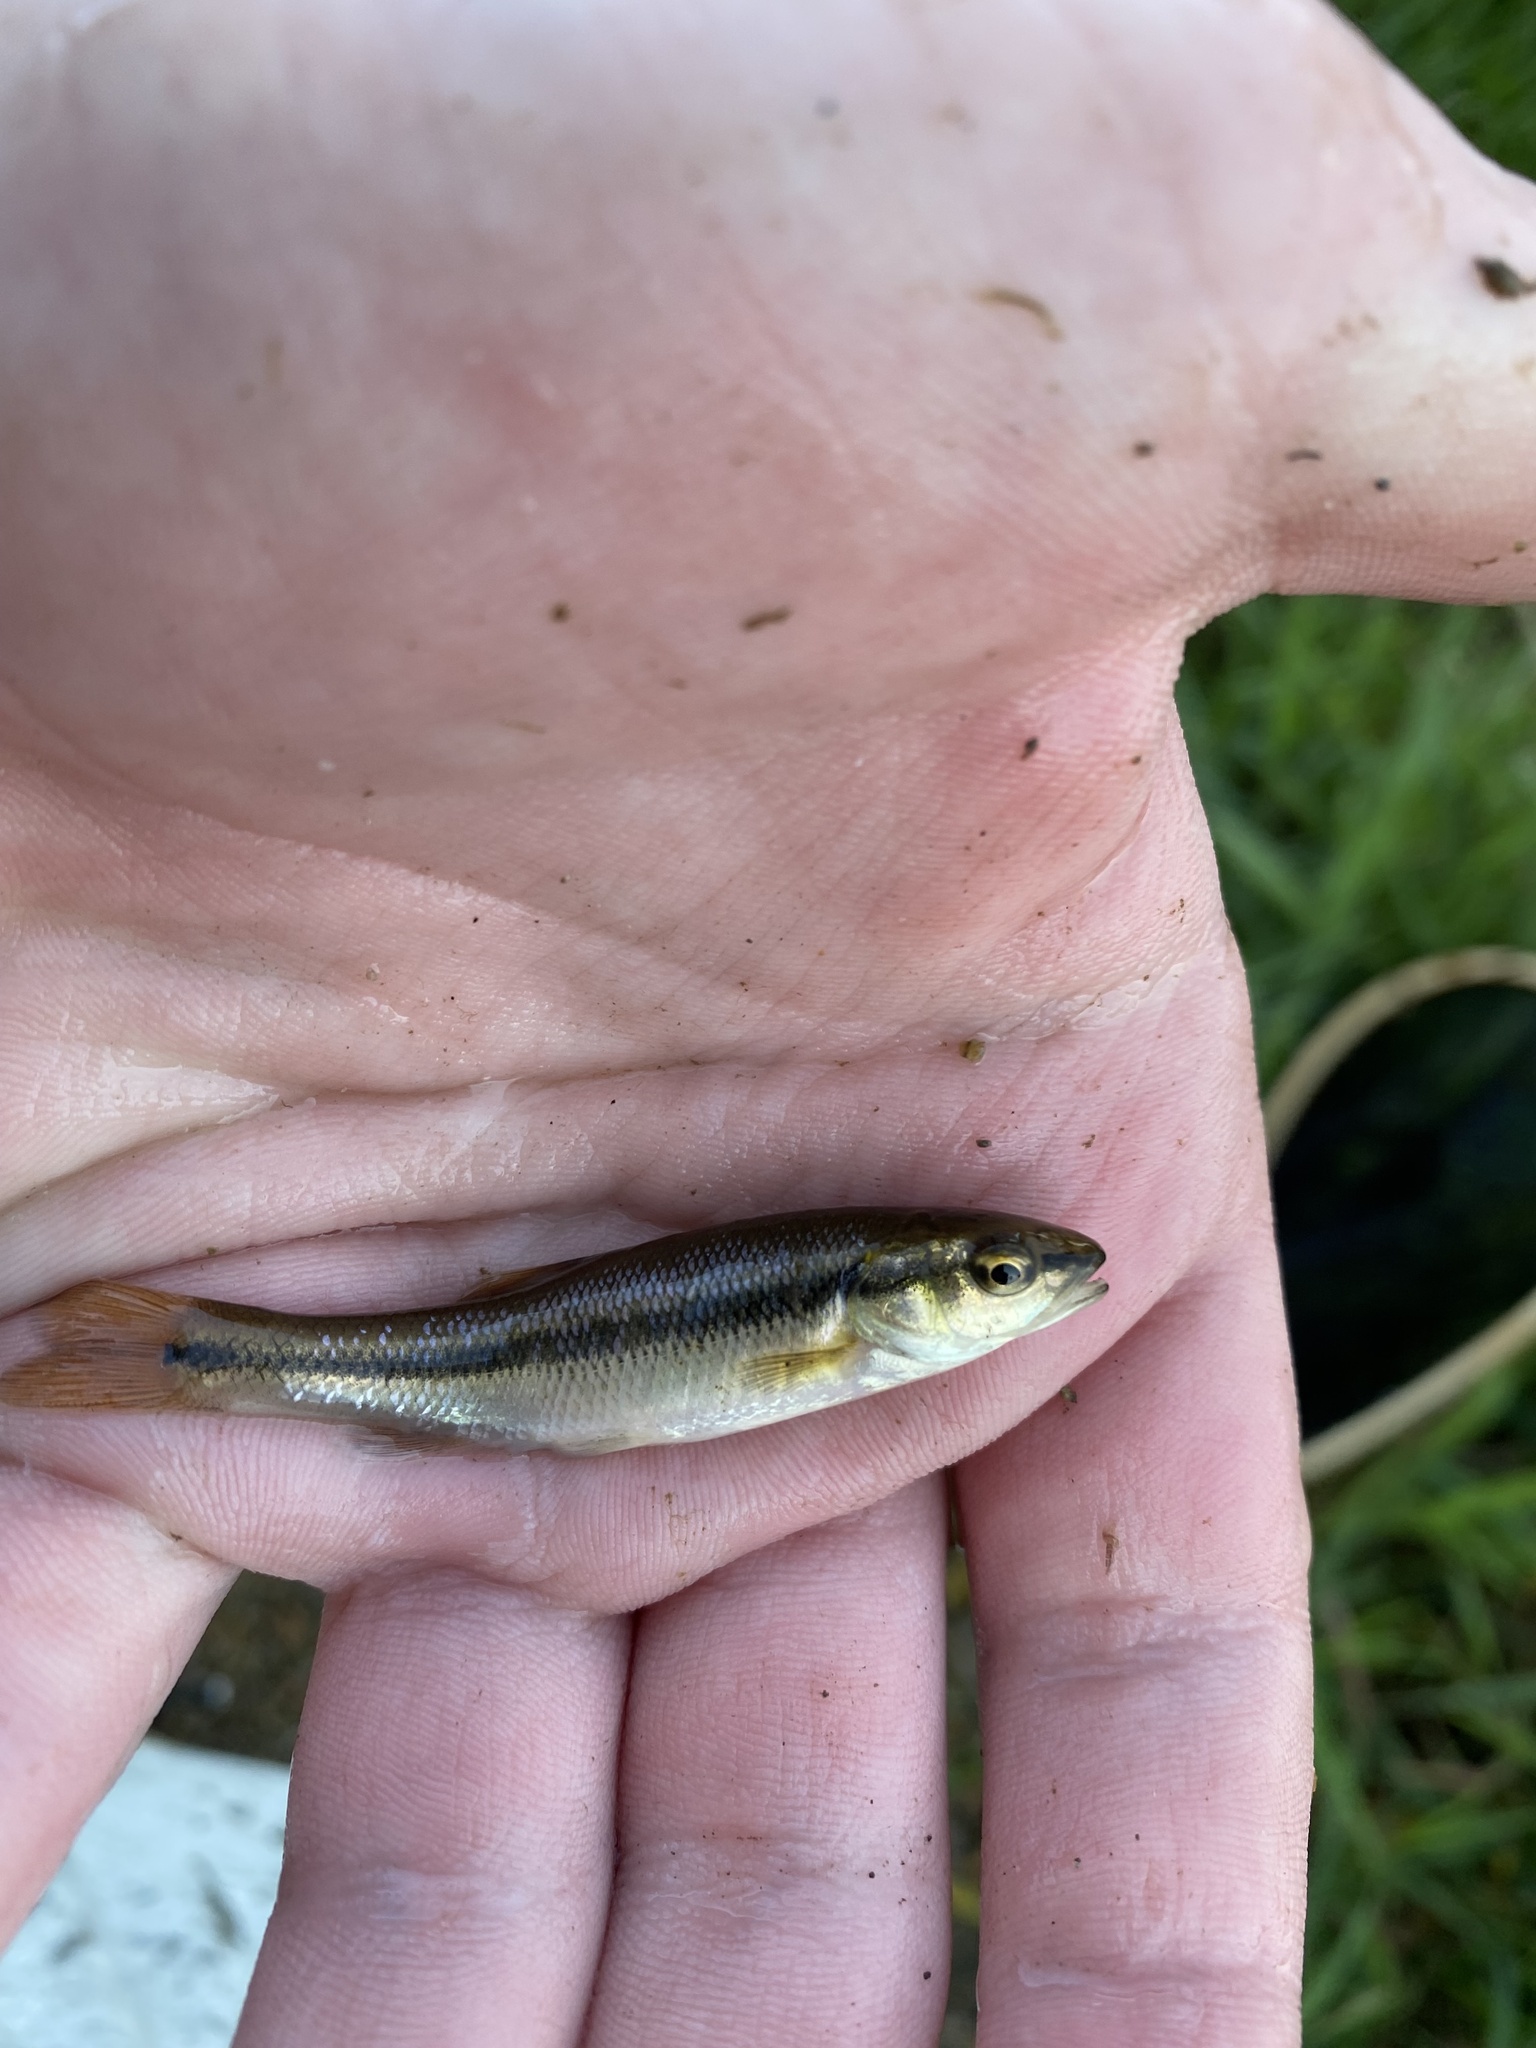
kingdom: Animalia
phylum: Chordata
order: Cypriniformes
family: Cyprinidae
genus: Semotilus
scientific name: Semotilus atromaculatus
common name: Creek chub
